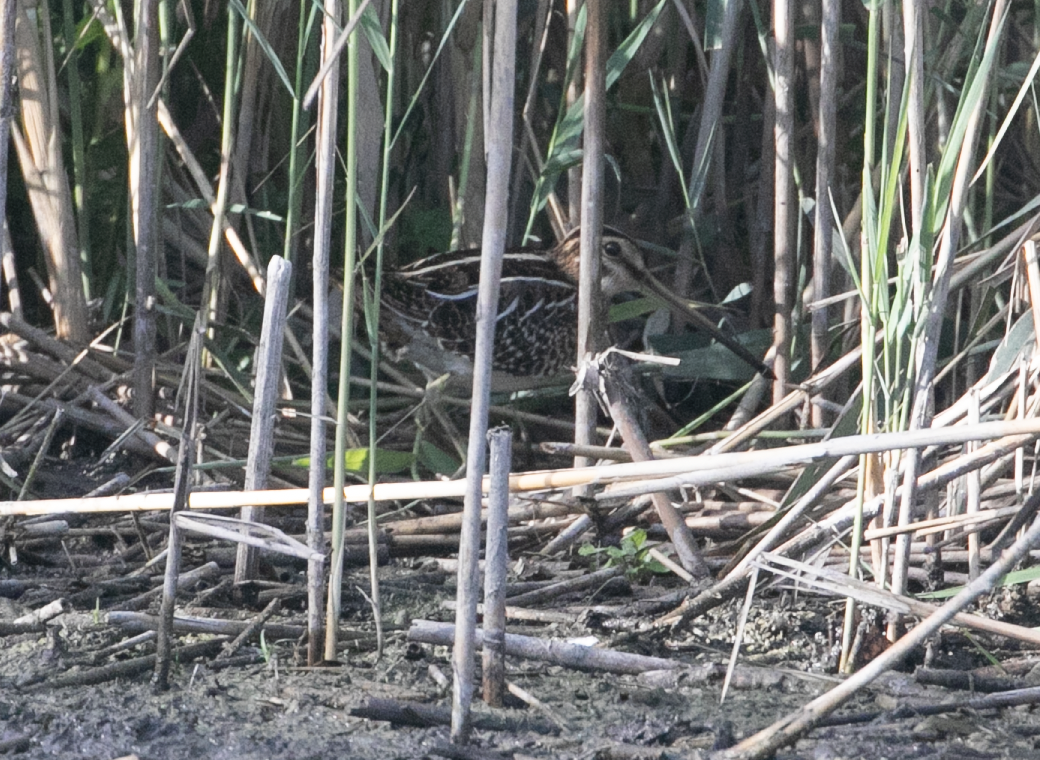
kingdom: Animalia
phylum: Chordata
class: Aves
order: Charadriiformes
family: Scolopacidae
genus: Gallinago
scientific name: Gallinago gallinago
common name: Common snipe
